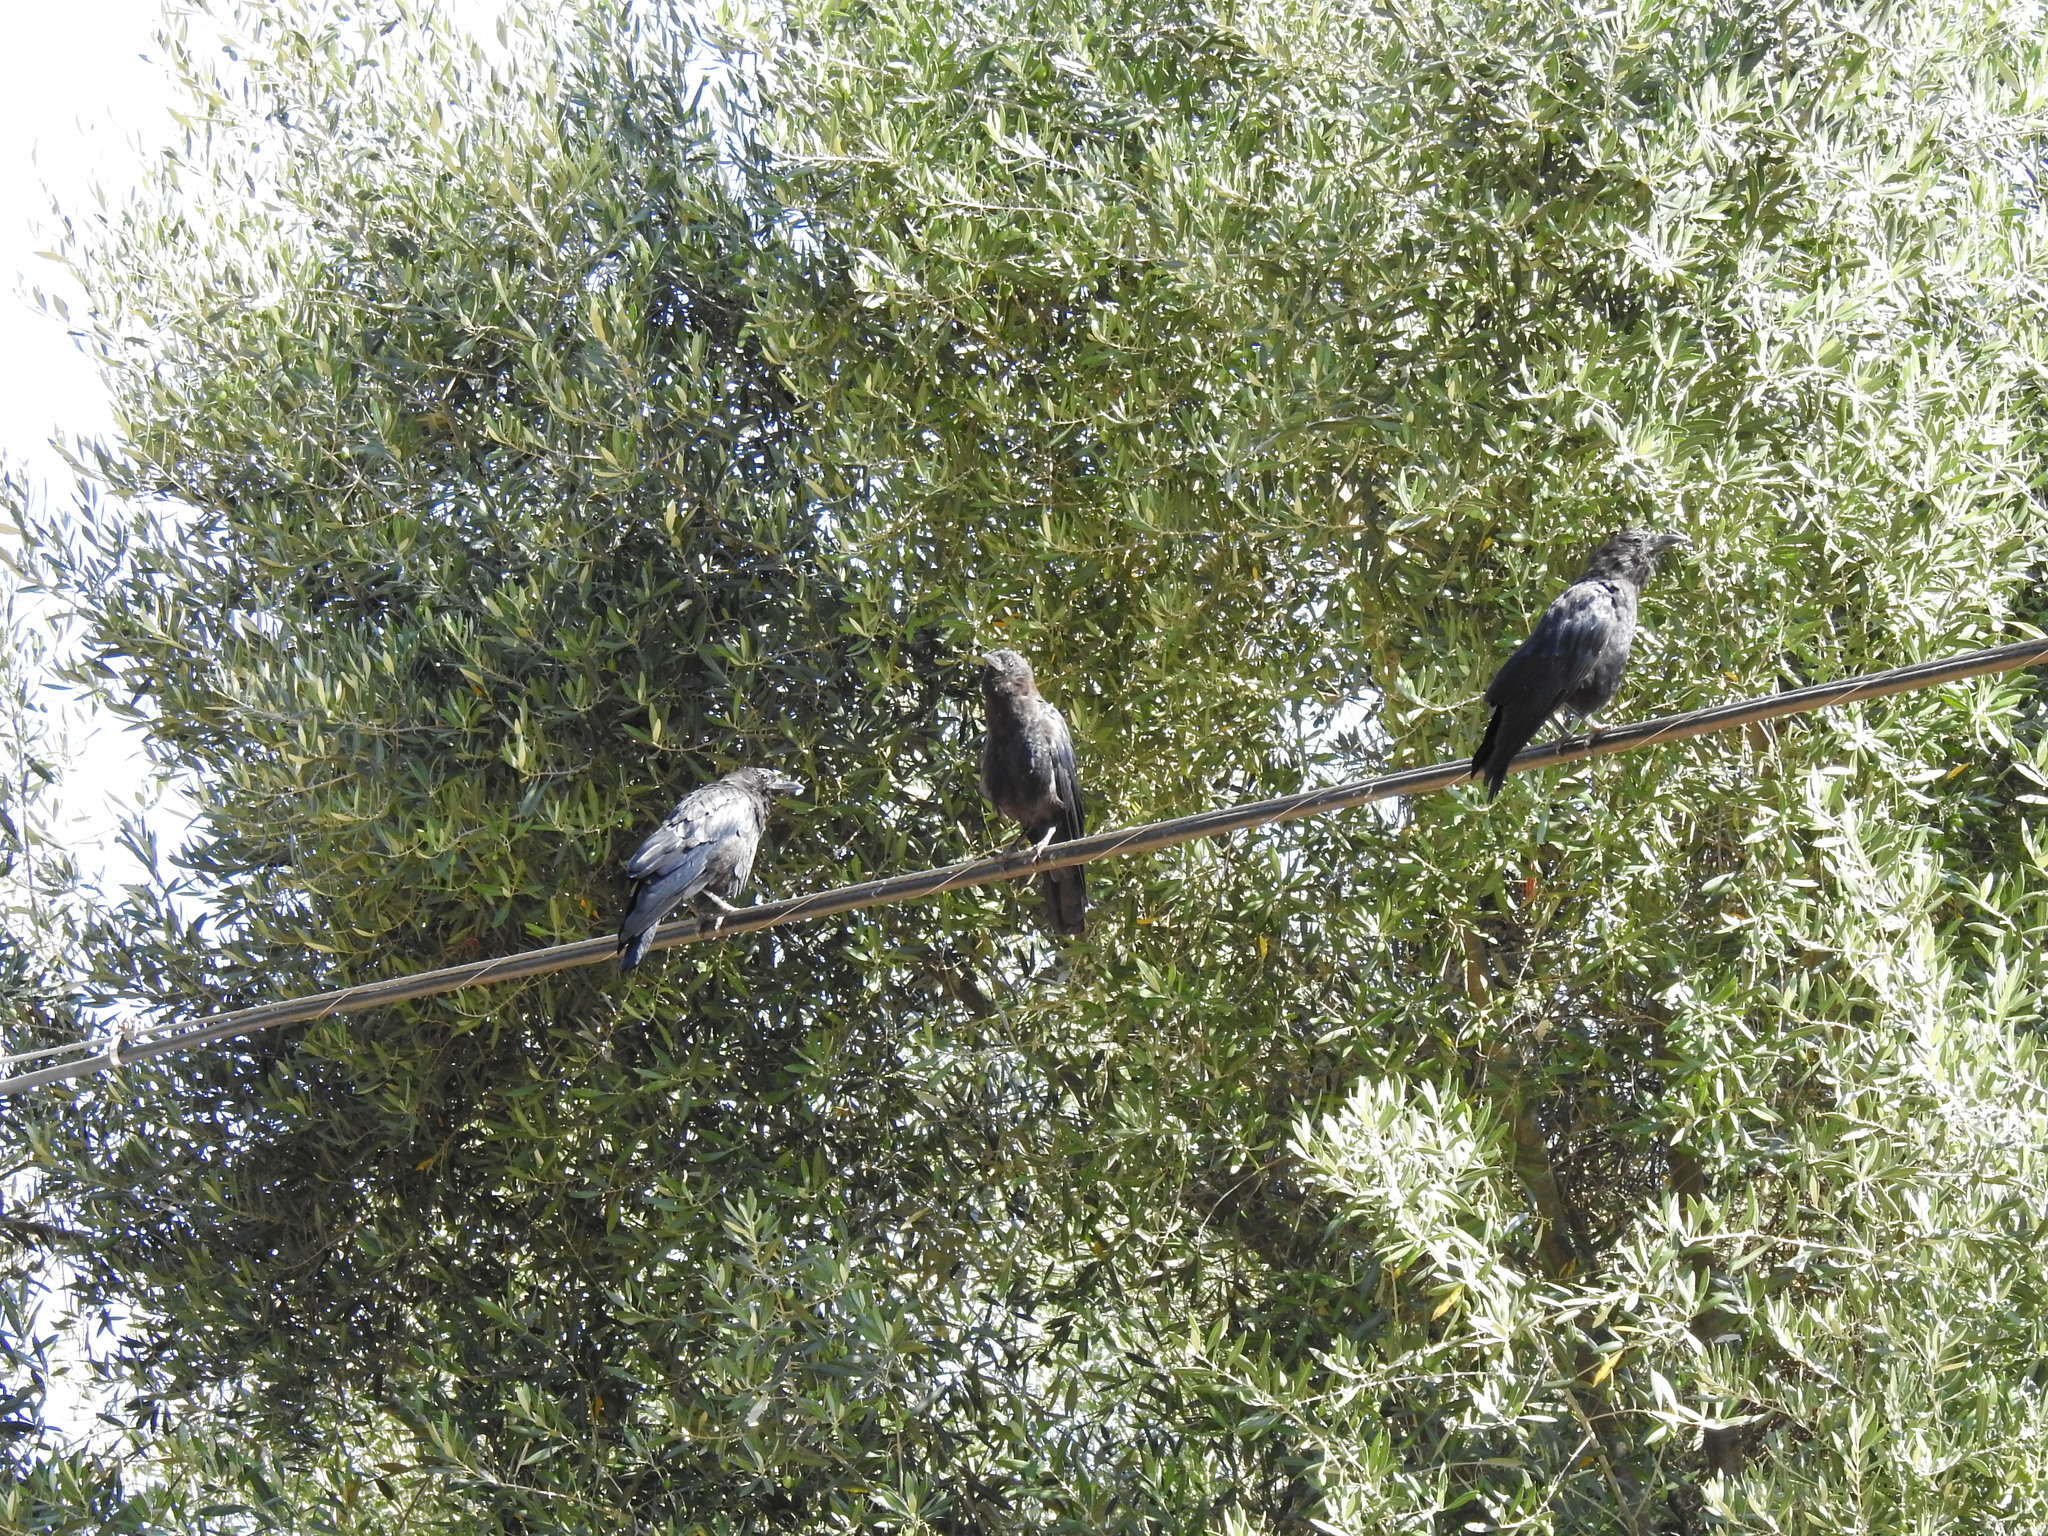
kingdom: Animalia
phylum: Chordata
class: Aves
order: Passeriformes
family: Corvidae
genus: Corvus
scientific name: Corvus brachyrhynchos
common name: American crow
